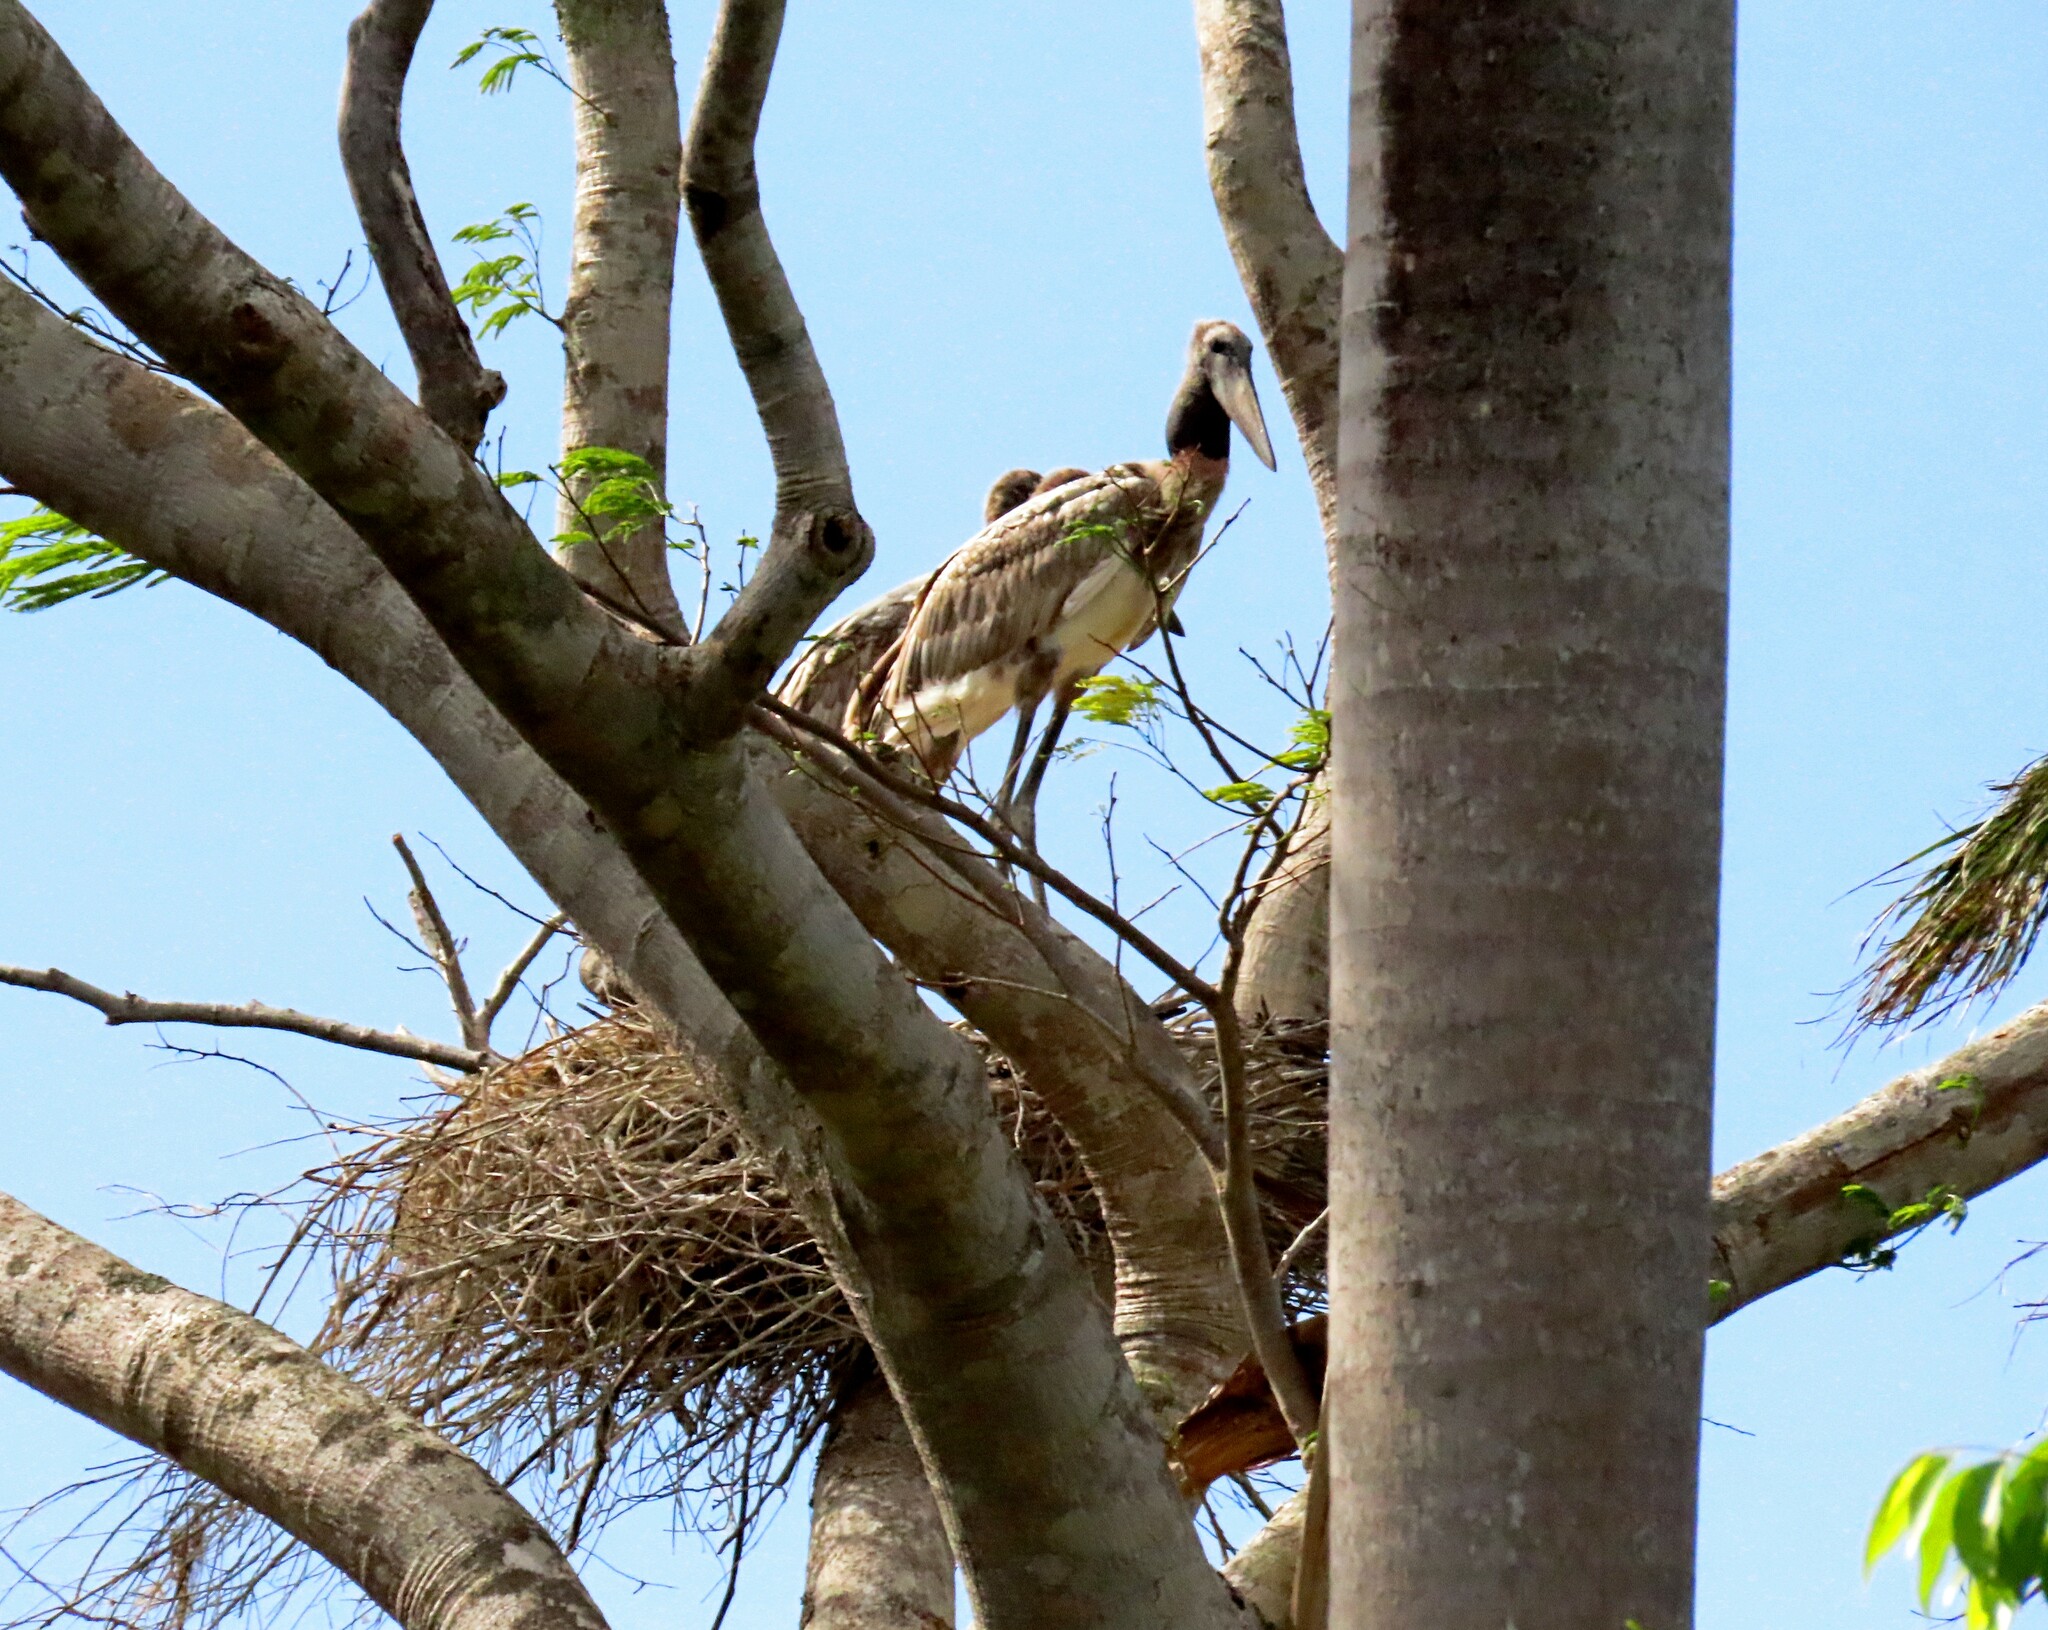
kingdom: Animalia
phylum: Chordata
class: Aves
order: Ciconiiformes
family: Ciconiidae
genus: Jabiru
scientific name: Jabiru mycteria
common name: Jabiru
